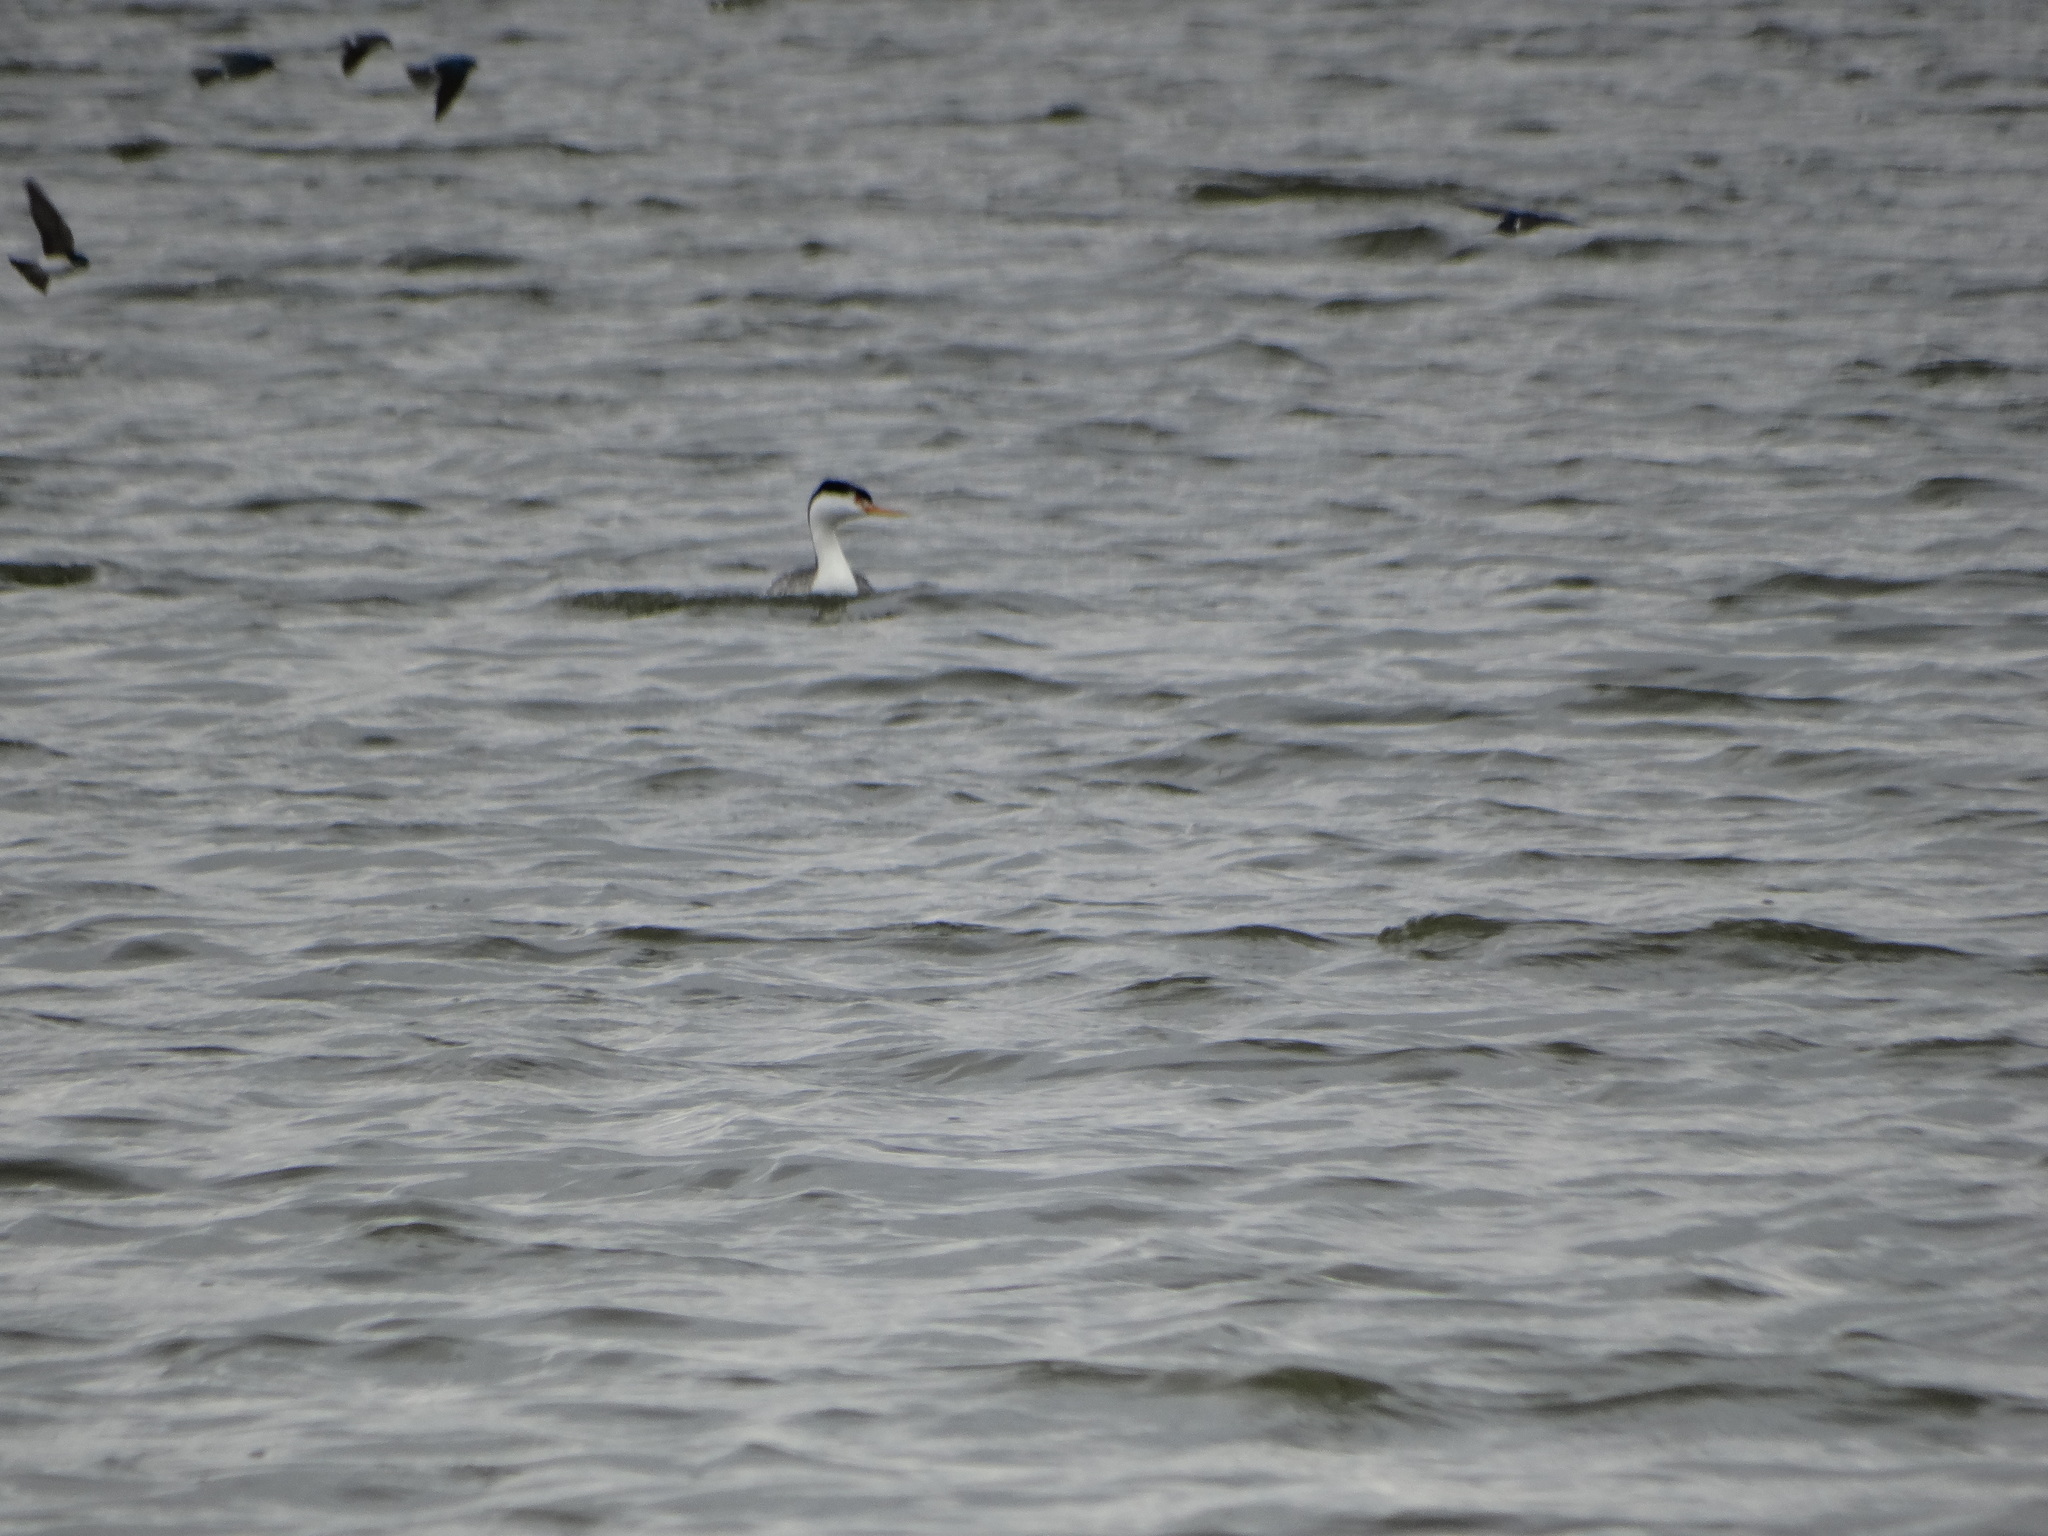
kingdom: Animalia
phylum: Chordata
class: Aves
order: Podicipediformes
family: Podicipedidae
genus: Aechmophorus
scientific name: Aechmophorus clarkii
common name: Clark's grebe
